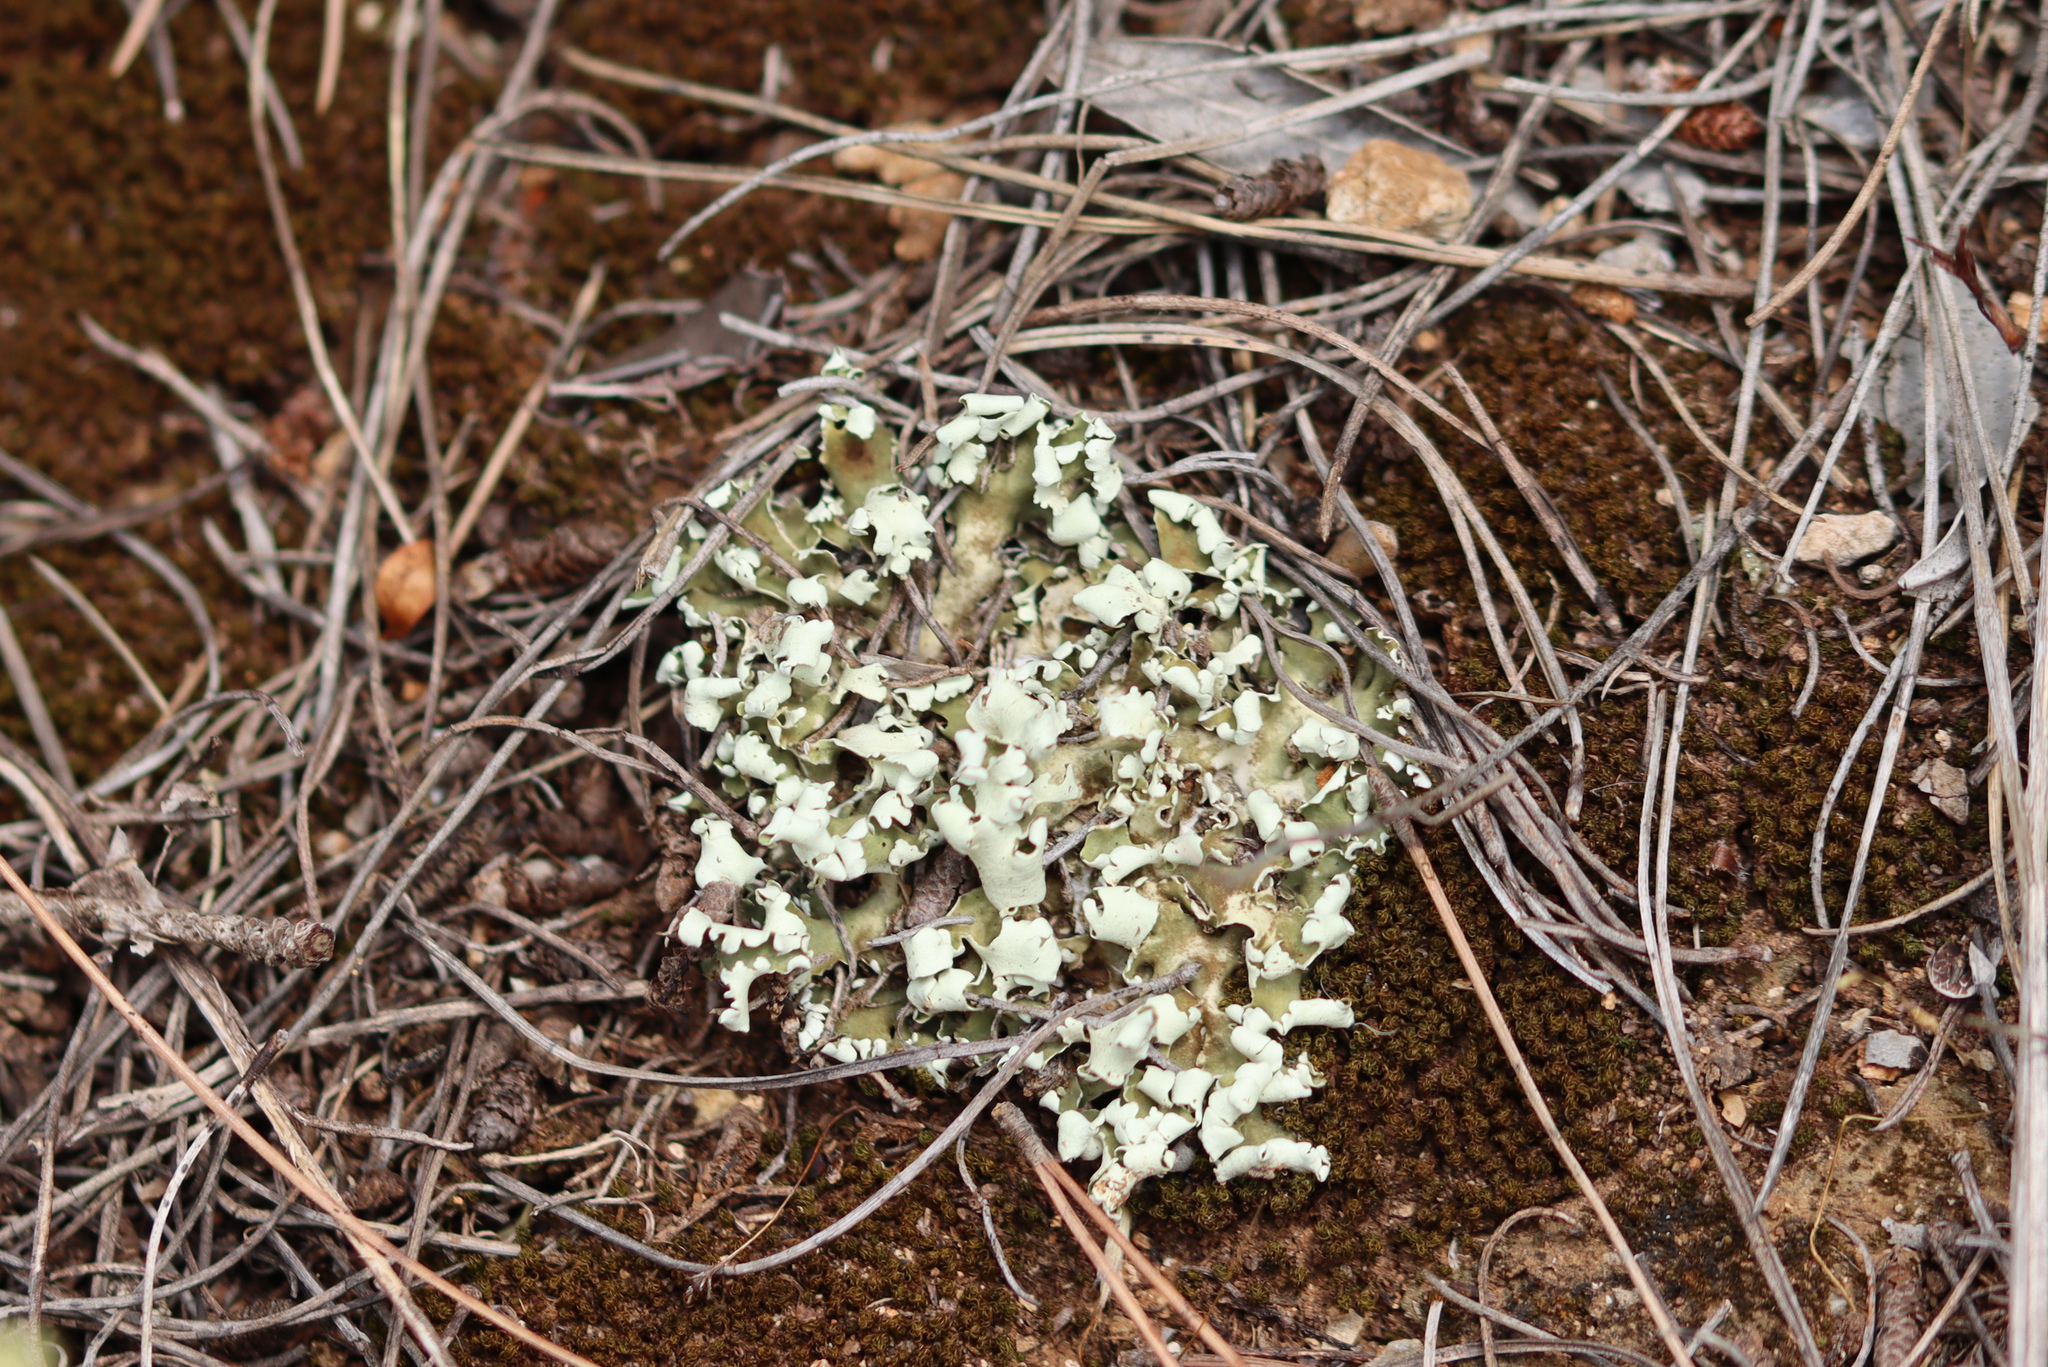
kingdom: Fungi
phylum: Ascomycota
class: Lecanoromycetes
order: Lecanorales
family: Cladoniaceae
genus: Cladonia
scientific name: Cladonia foliacea
